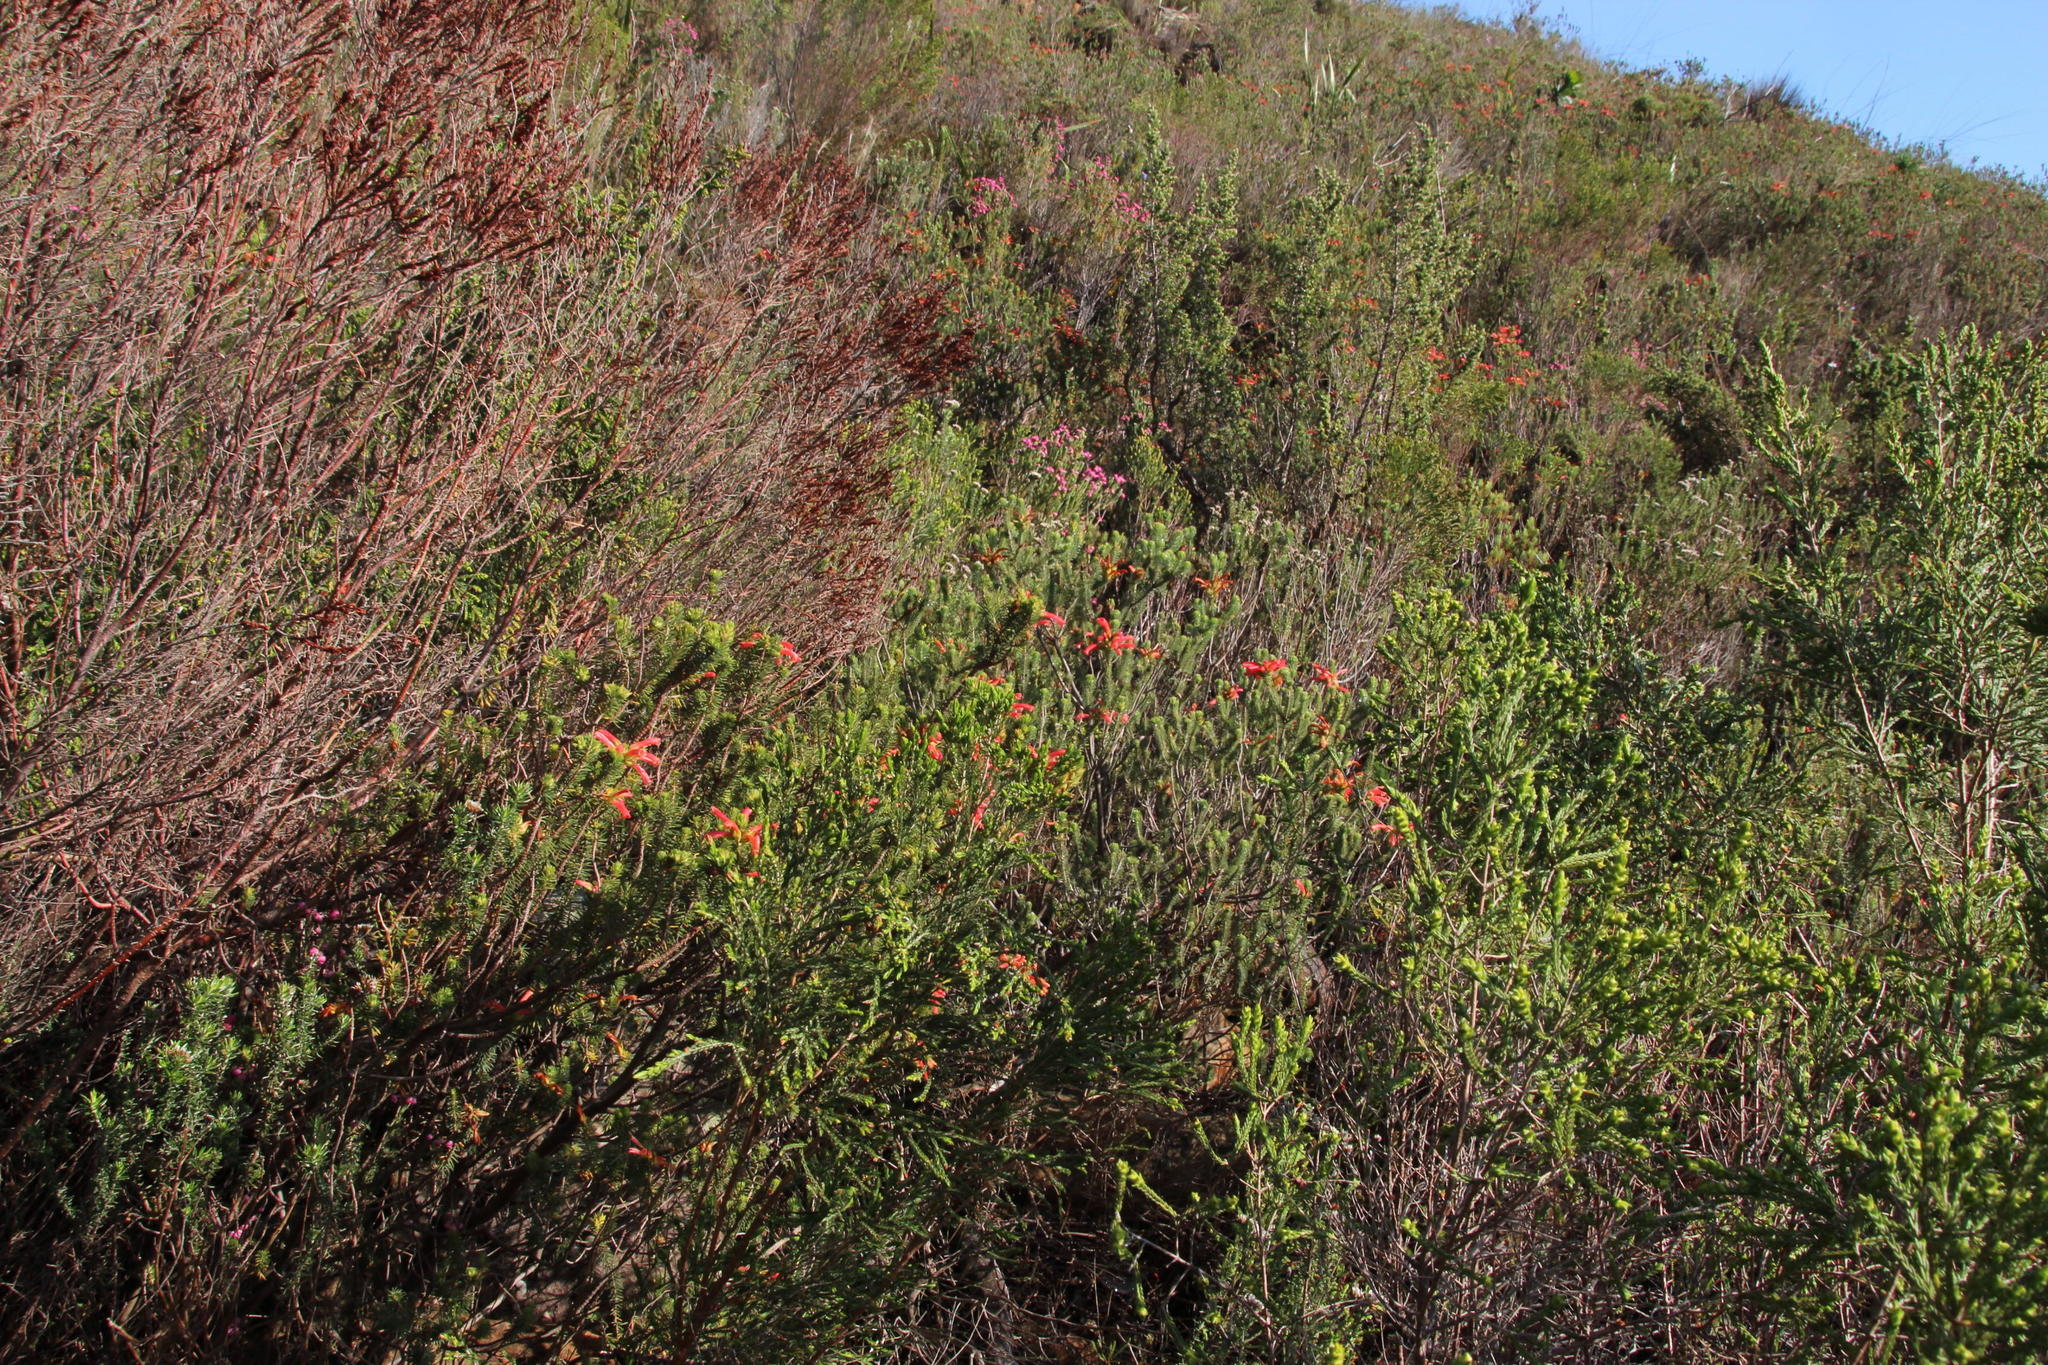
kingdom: Plantae
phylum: Tracheophyta
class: Magnoliopsida
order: Ericales
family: Ericaceae
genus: Erica
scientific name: Erica abietina
